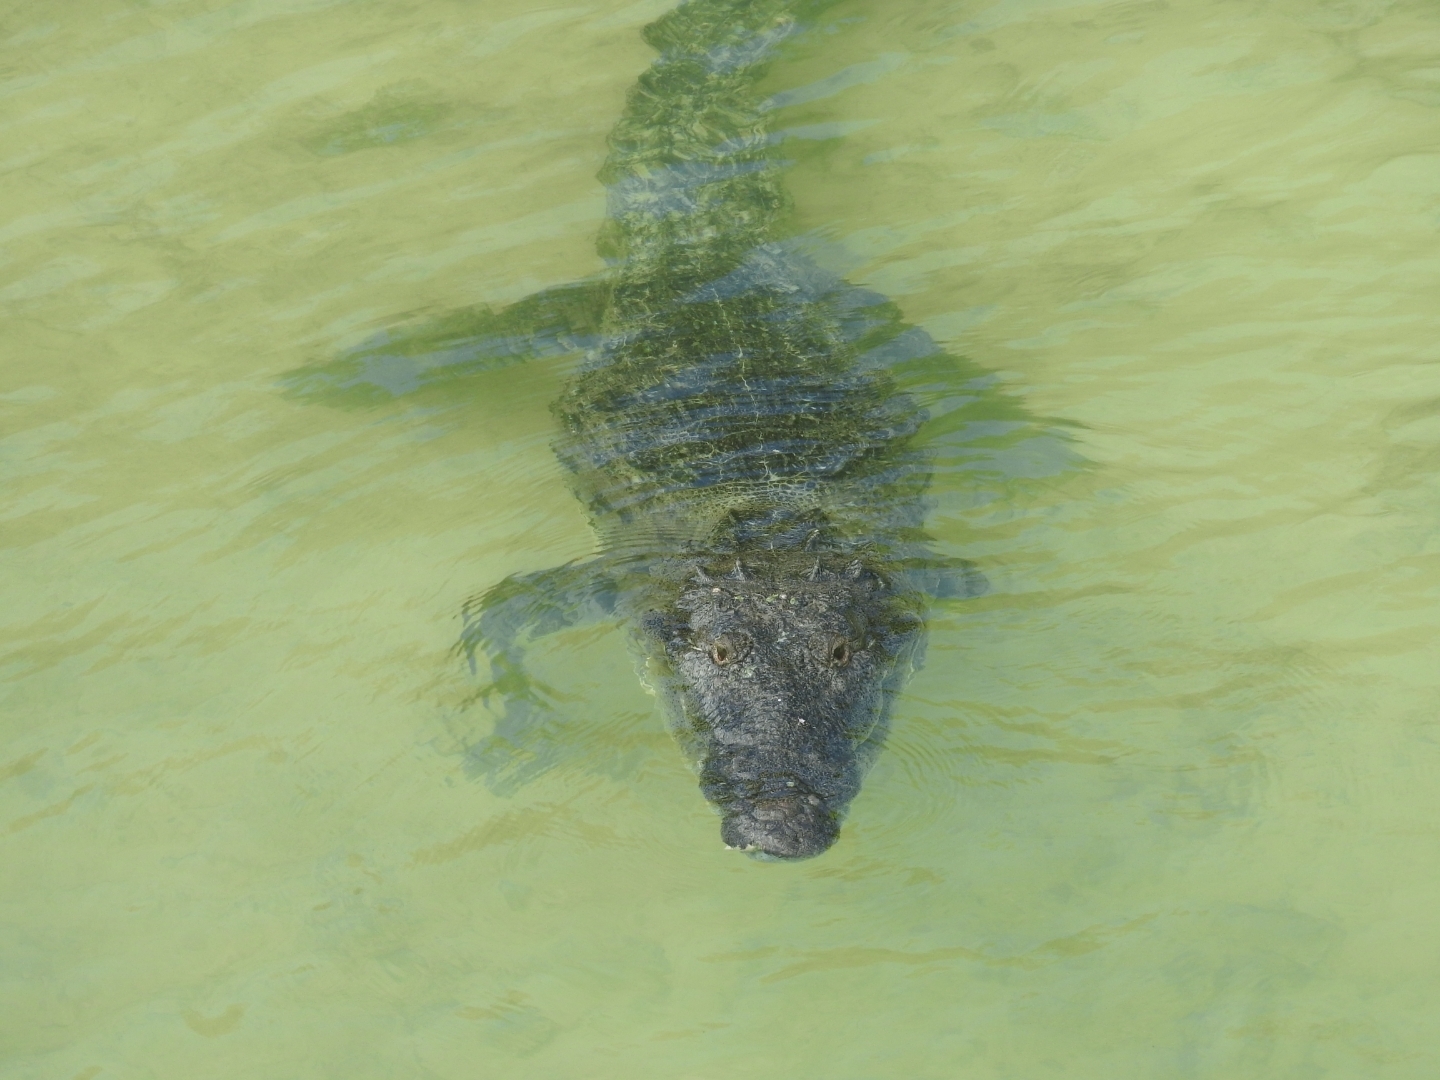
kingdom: Animalia
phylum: Chordata
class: Crocodylia
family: Crocodylidae
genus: Crocodylus
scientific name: Crocodylus moreletii
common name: Morelet's crocodile
